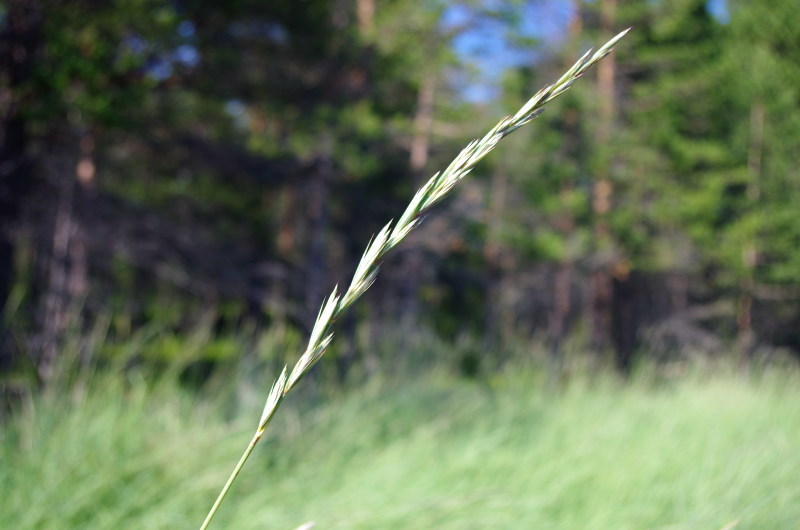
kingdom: Plantae
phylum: Tracheophyta
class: Liliopsida
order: Poales
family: Poaceae
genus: Elymus
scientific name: Elymus repens
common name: Quackgrass
